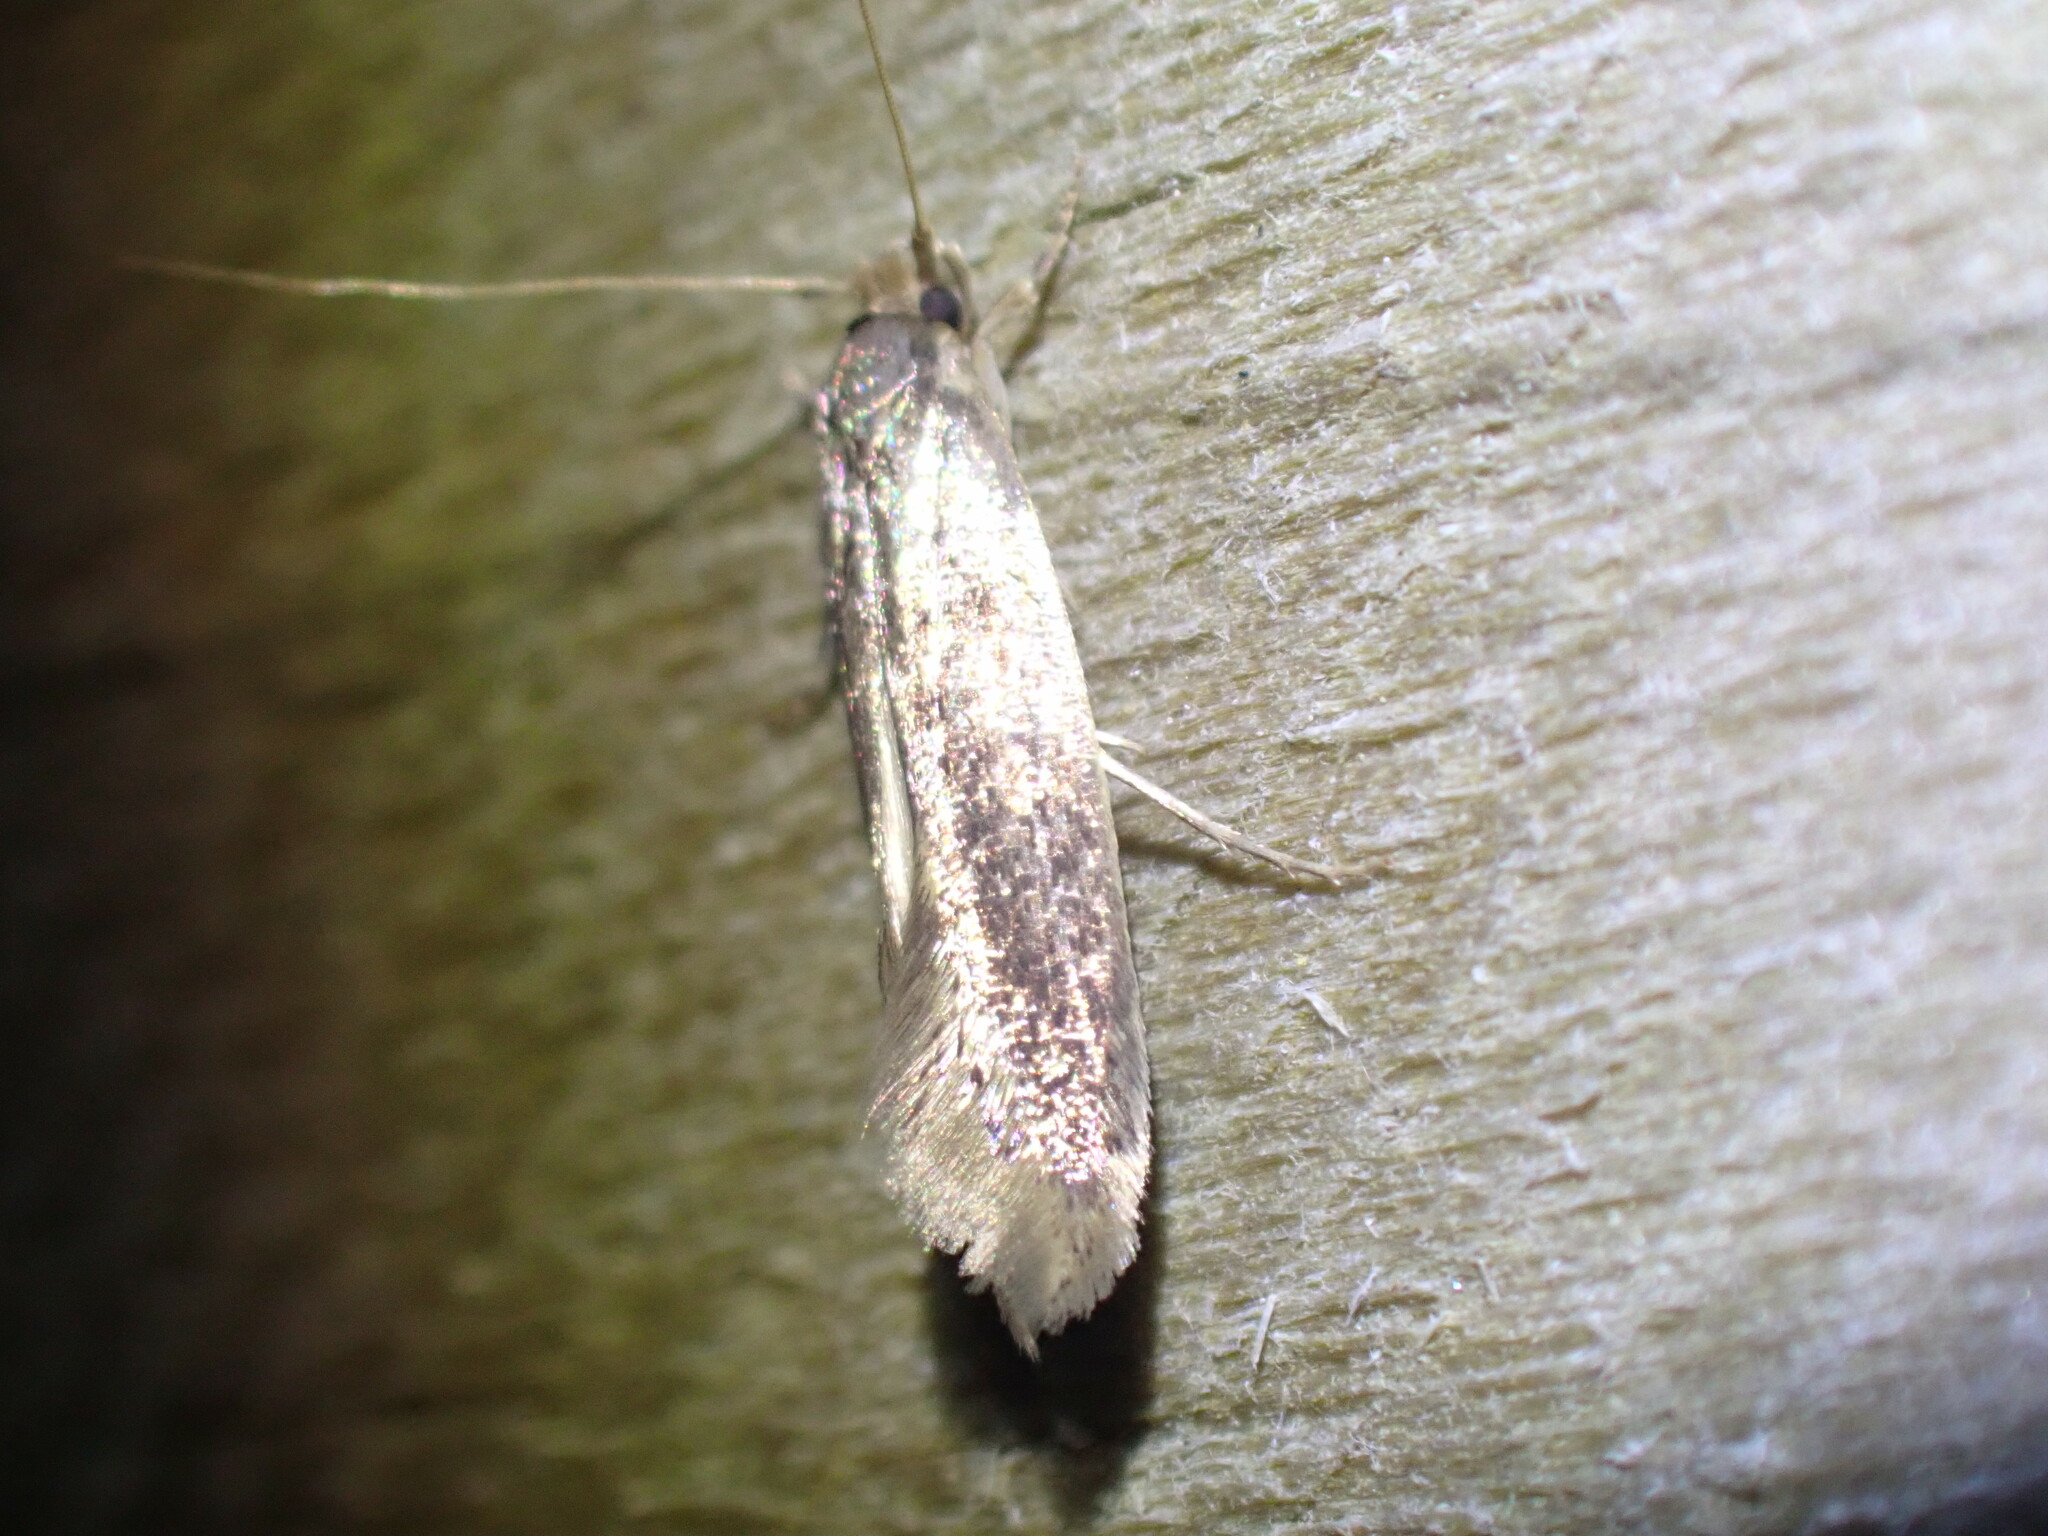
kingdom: Animalia
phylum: Arthropoda
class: Insecta
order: Lepidoptera
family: Tineidae
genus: Opogona
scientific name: Opogona omoscopa
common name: Moth
